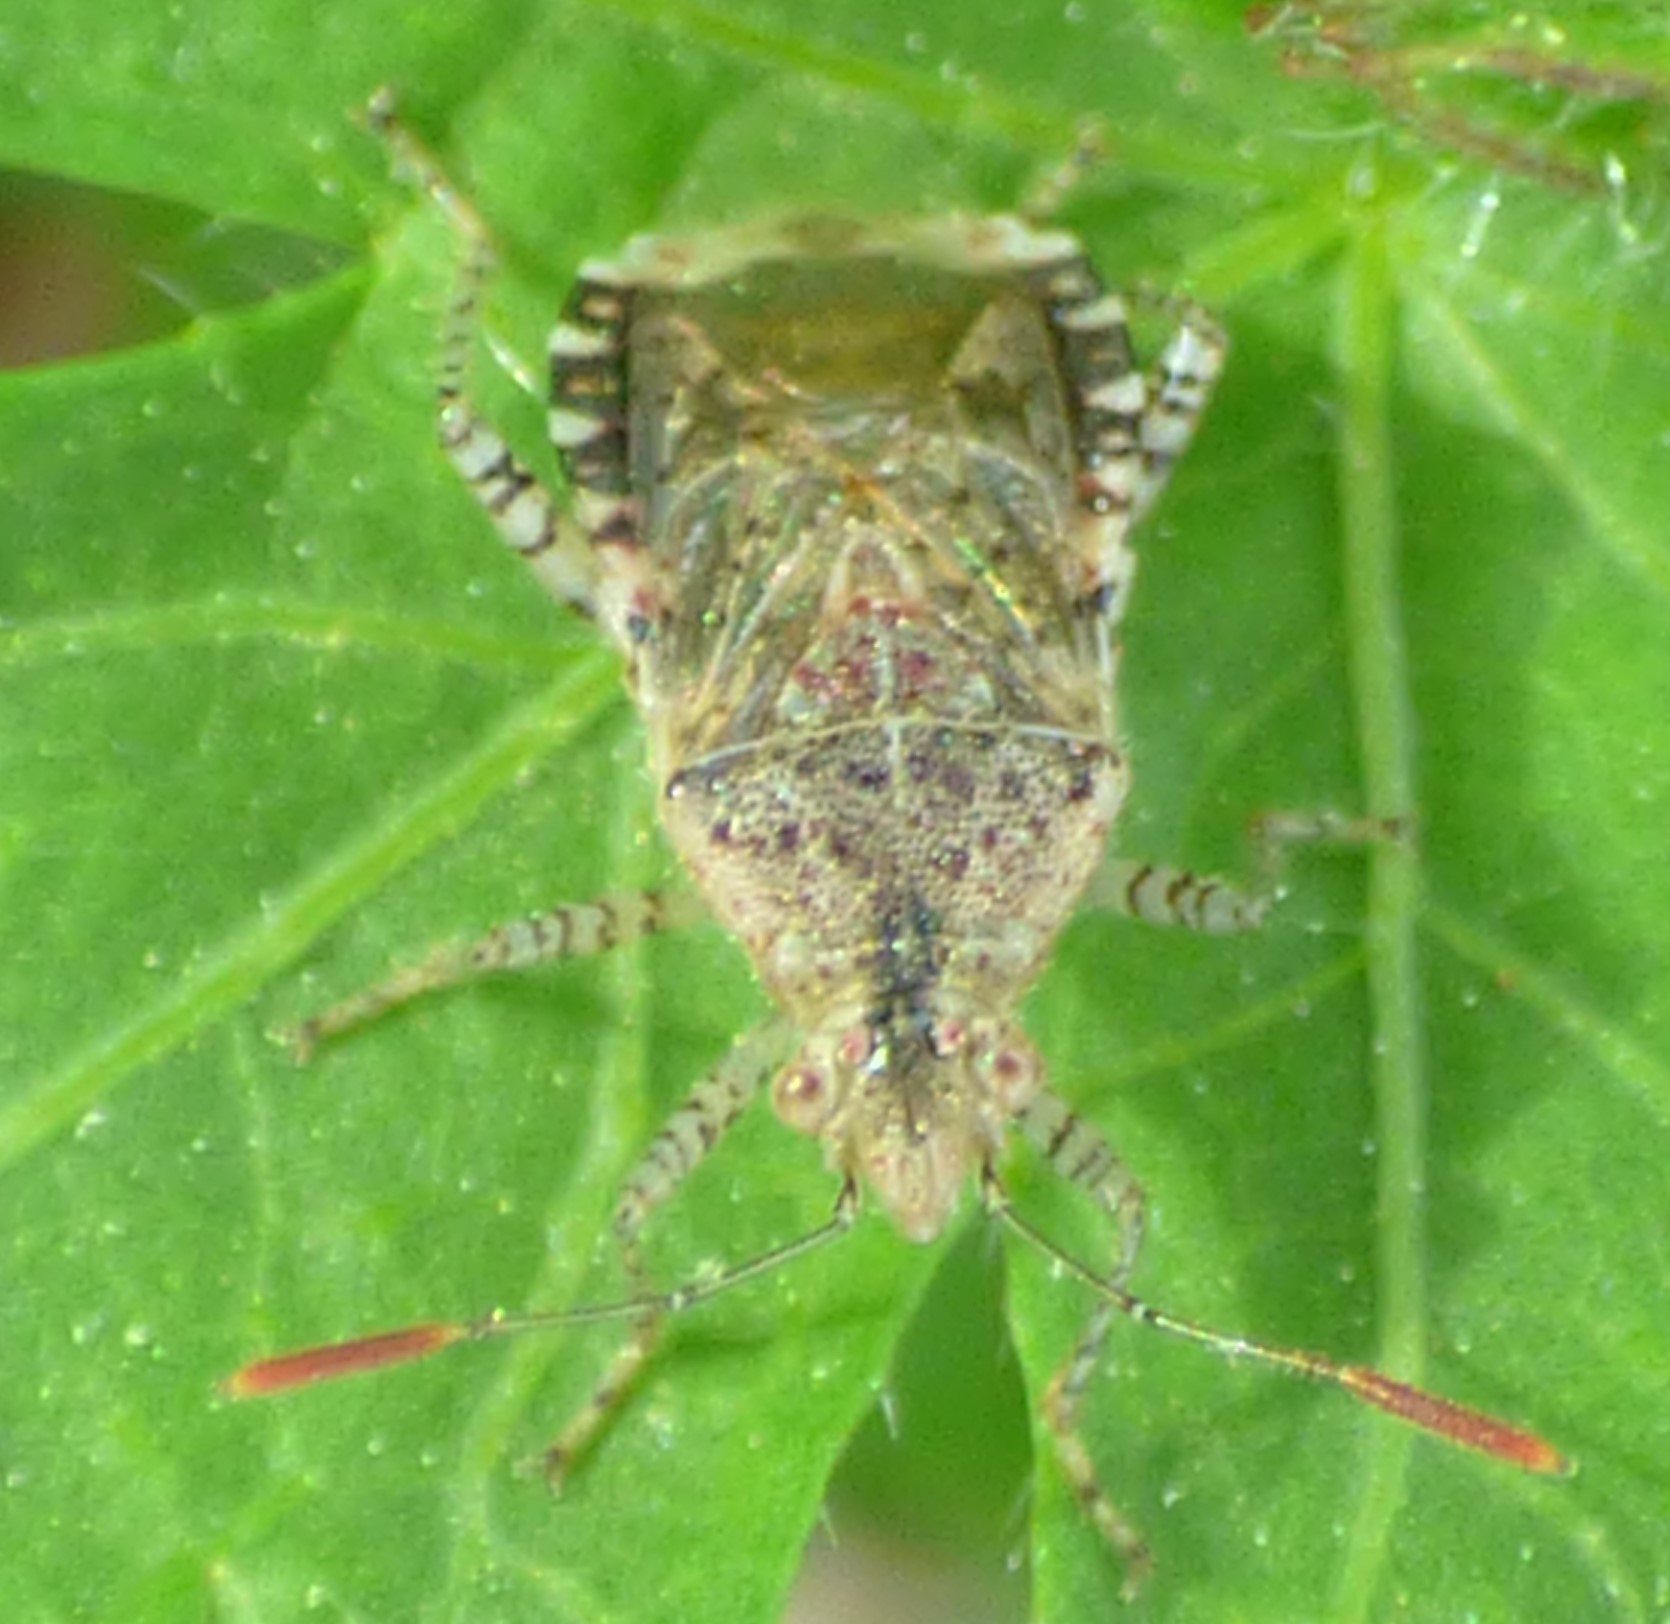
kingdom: Animalia
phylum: Arthropoda
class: Insecta
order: Hemiptera
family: Rhopalidae
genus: Niesthrea
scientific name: Niesthrea louisianica
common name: Scentless plant bug
